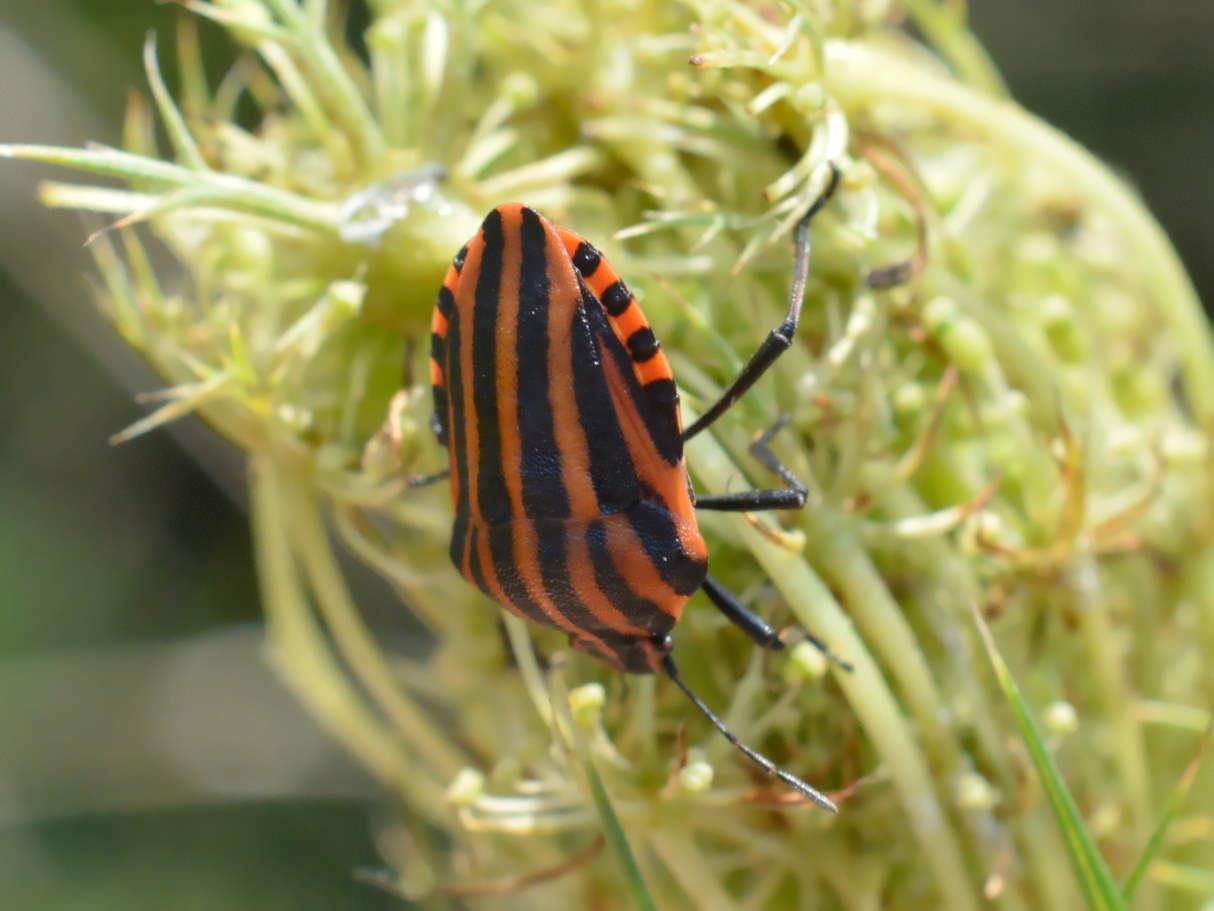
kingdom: Animalia
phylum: Arthropoda
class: Insecta
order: Hemiptera
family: Pentatomidae
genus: Graphosoma
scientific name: Graphosoma italicum
